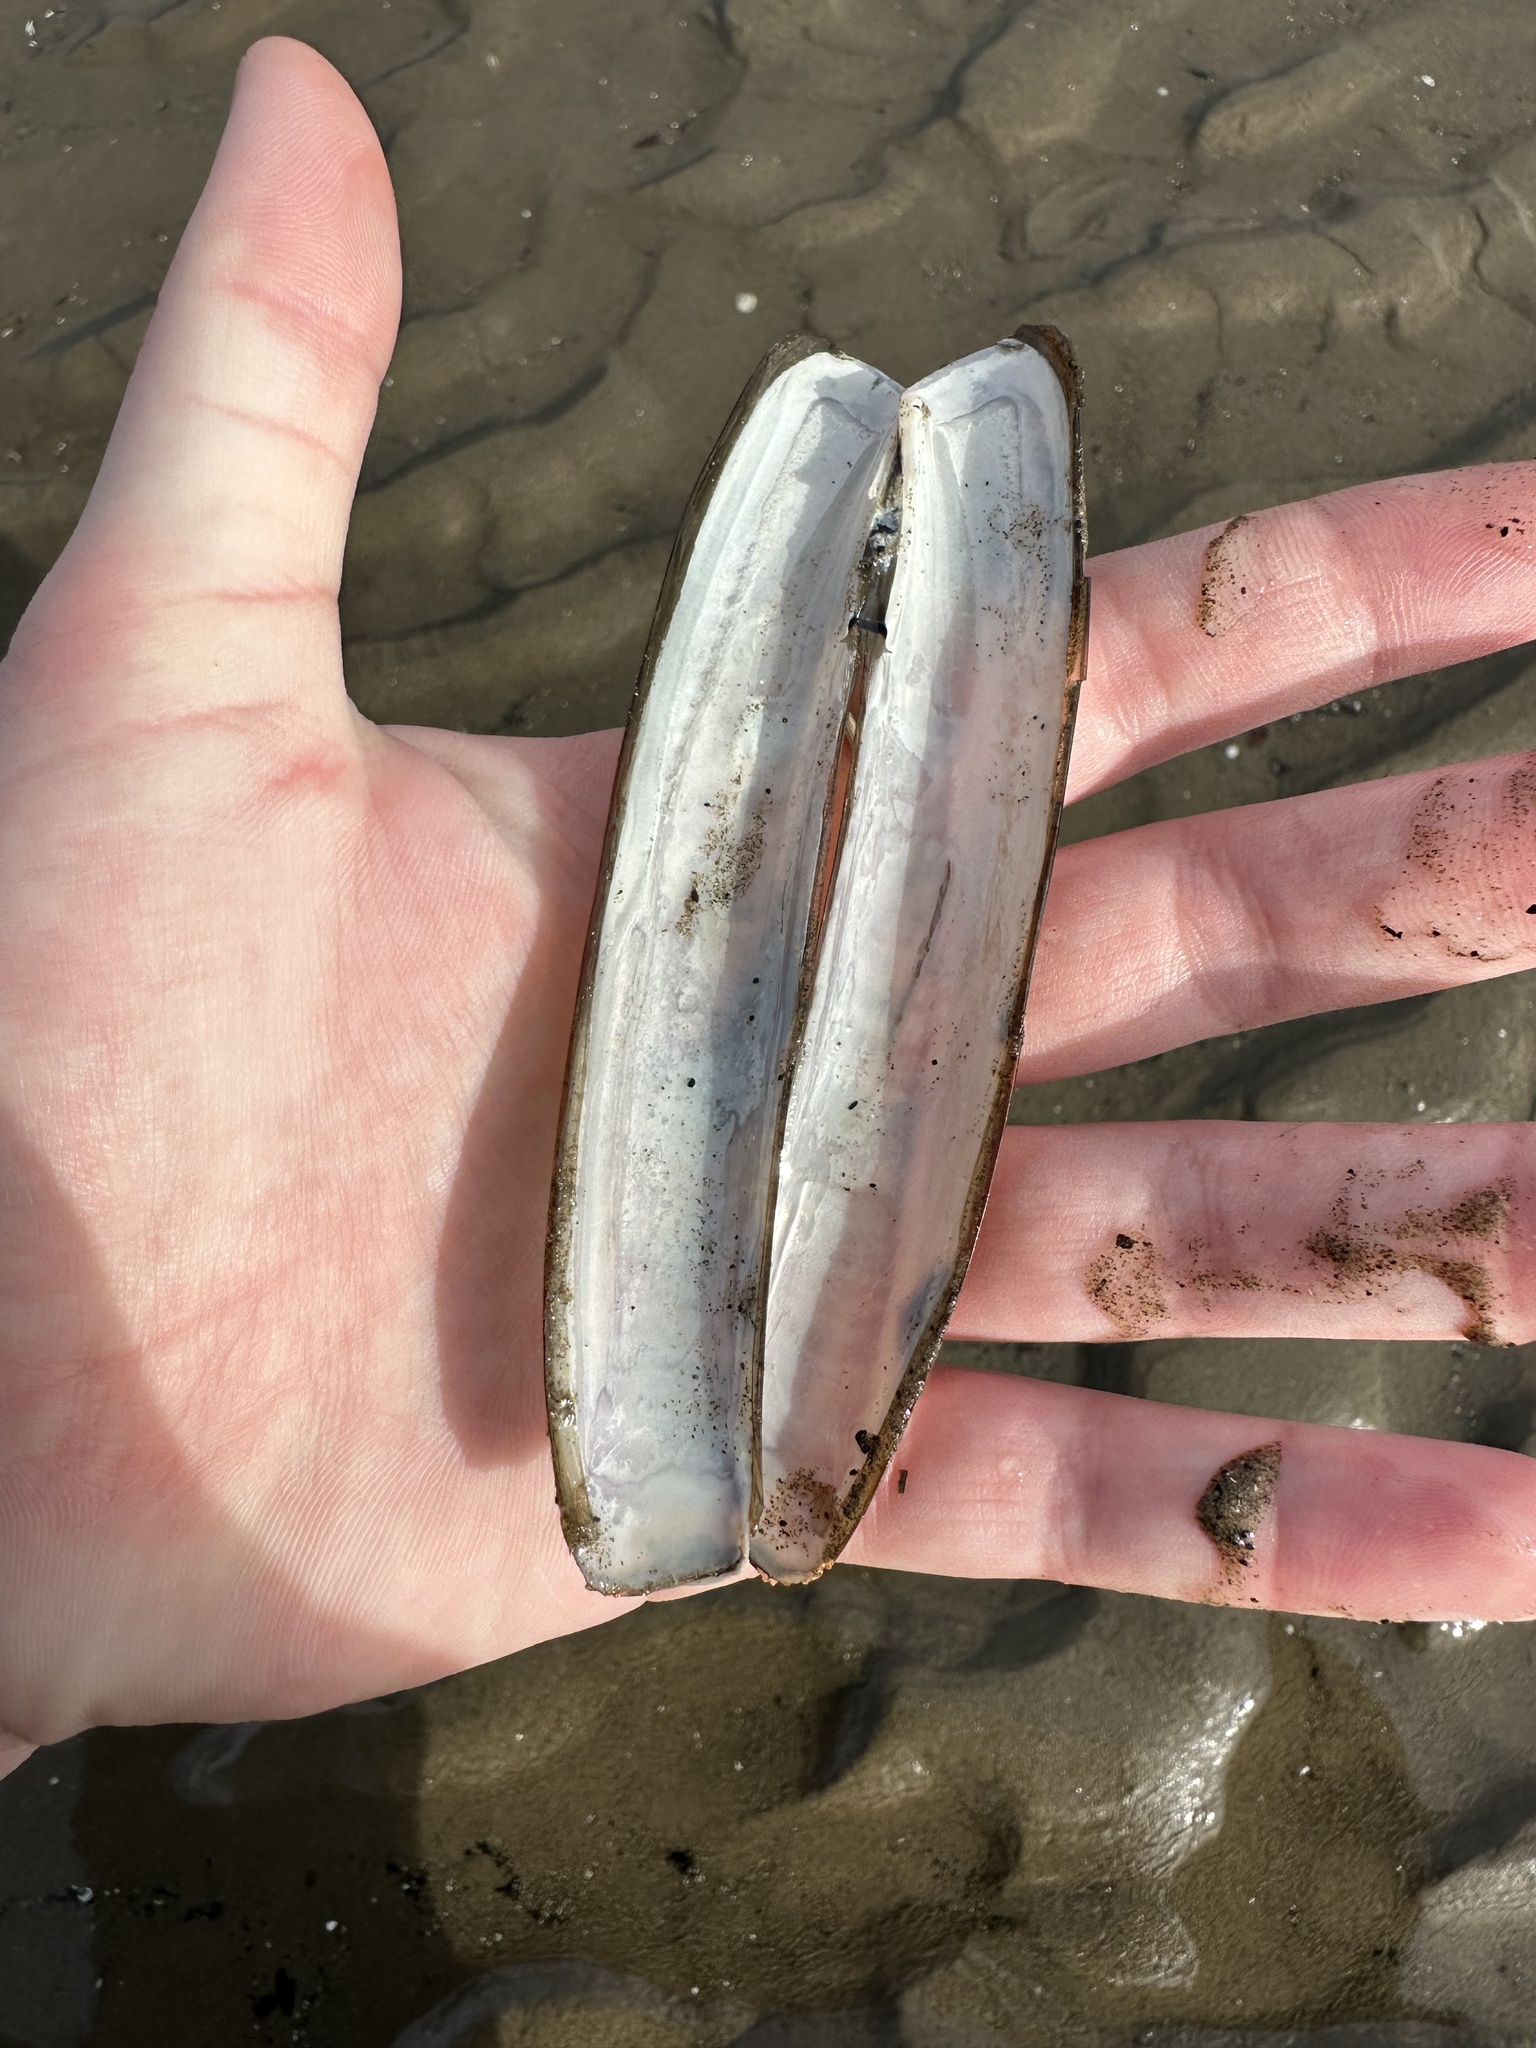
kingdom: Animalia
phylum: Mollusca
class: Bivalvia
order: Adapedonta
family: Pharidae
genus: Ensis
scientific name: Ensis leei
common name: American jack knife clam
